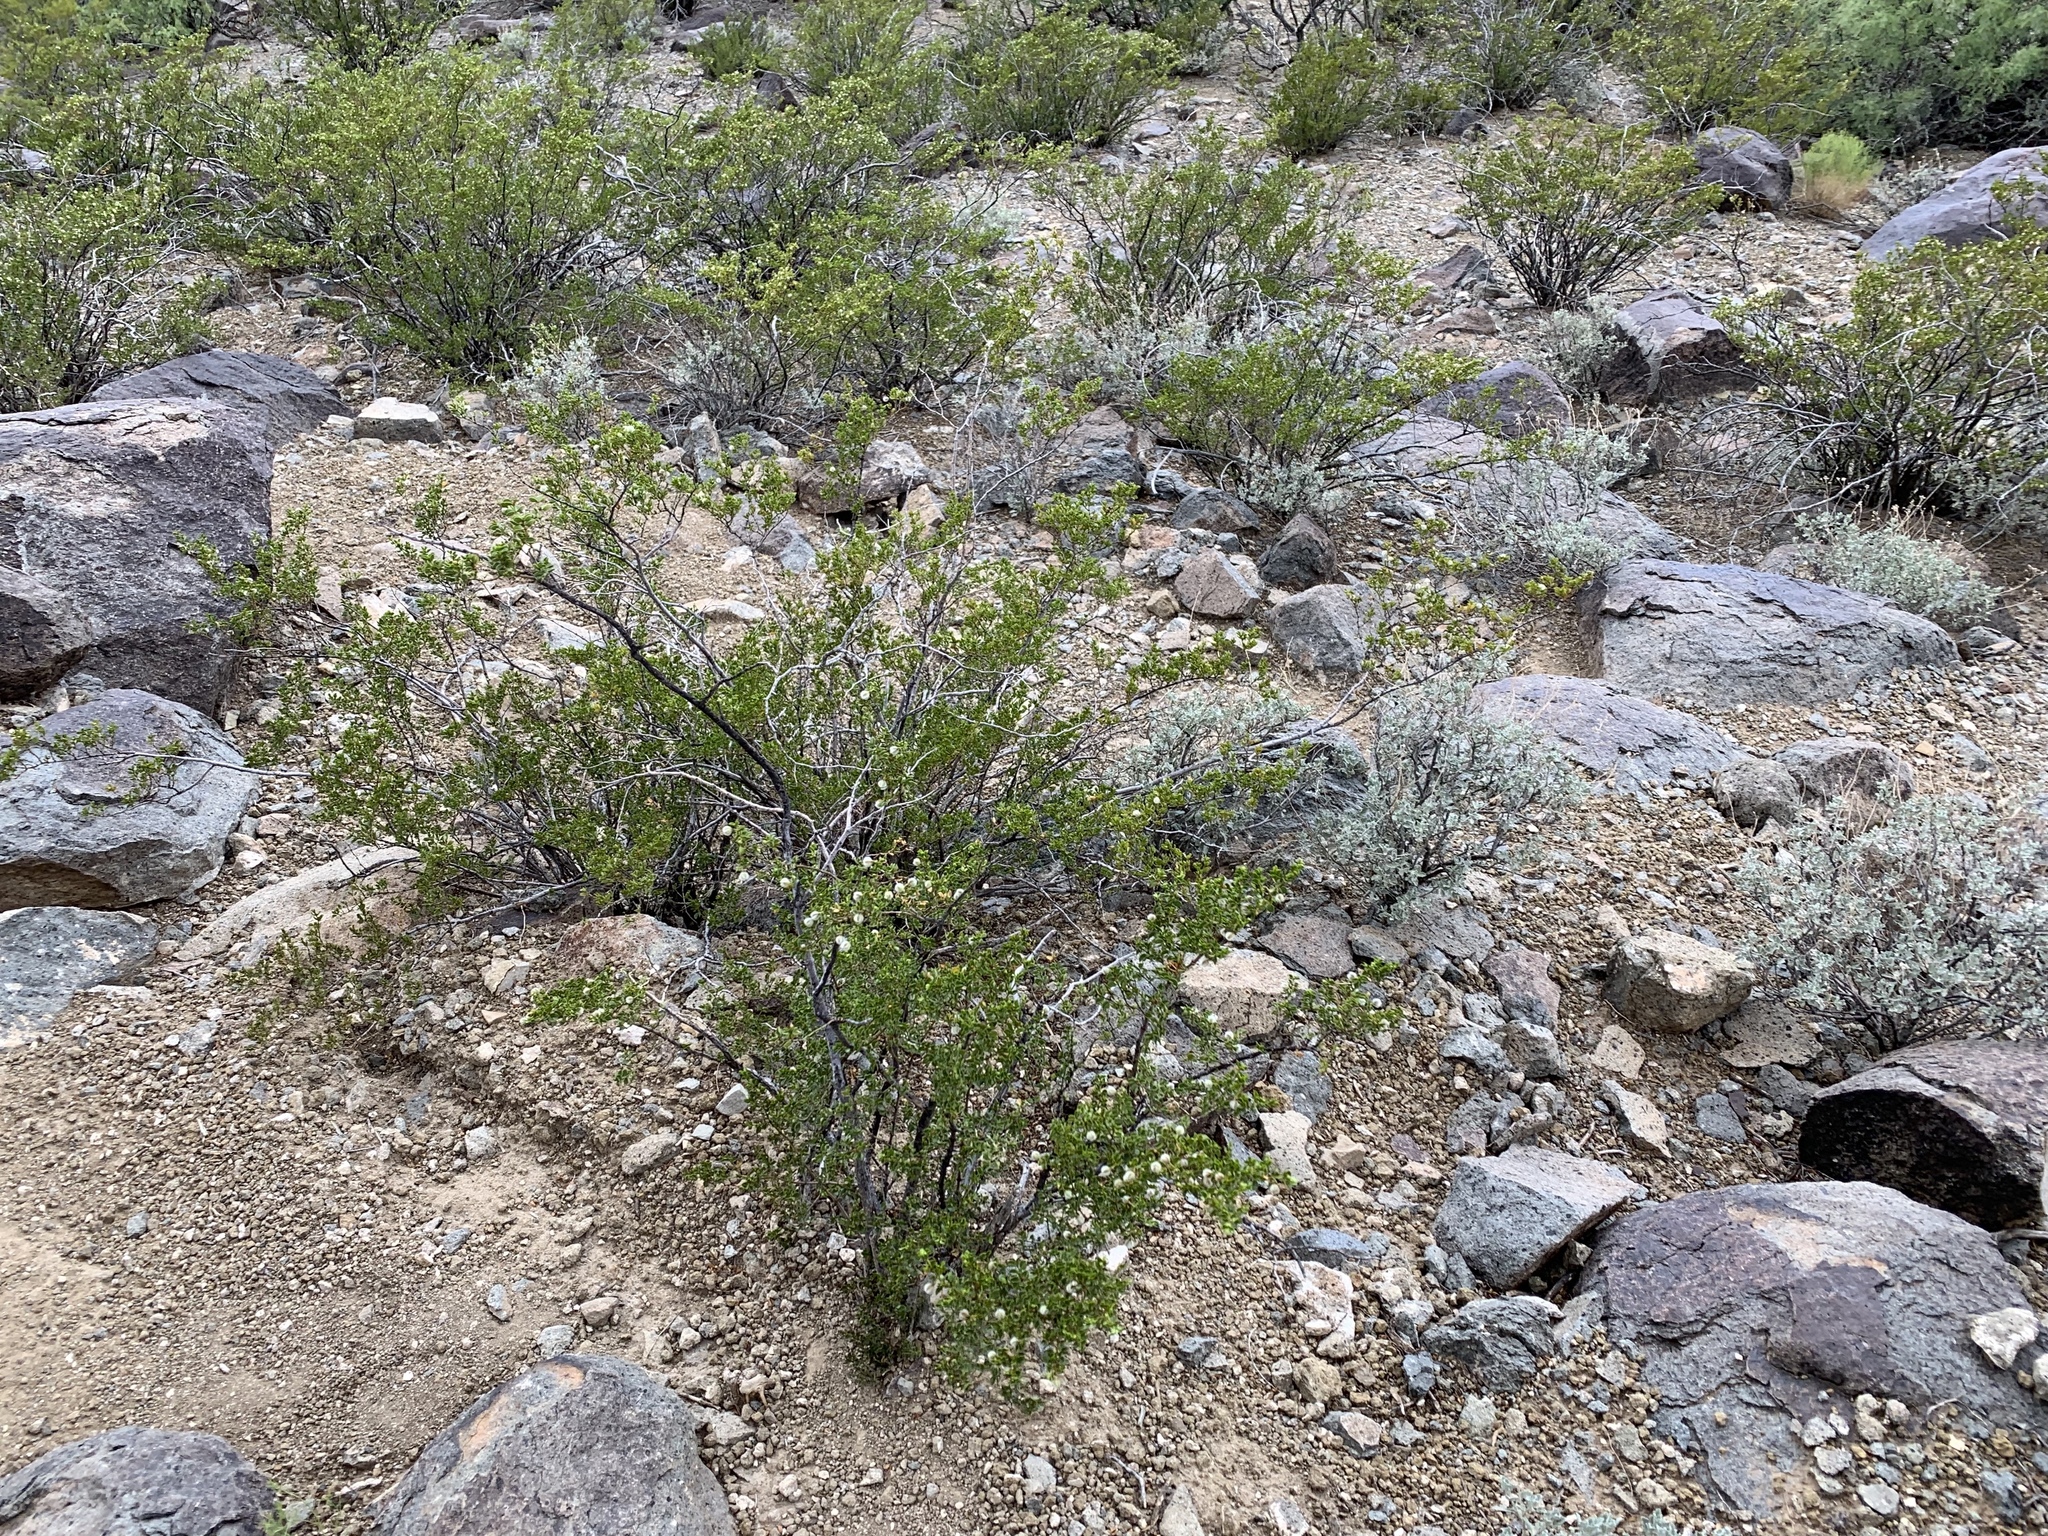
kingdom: Plantae
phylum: Tracheophyta
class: Magnoliopsida
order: Zygophyllales
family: Zygophyllaceae
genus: Larrea
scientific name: Larrea tridentata
